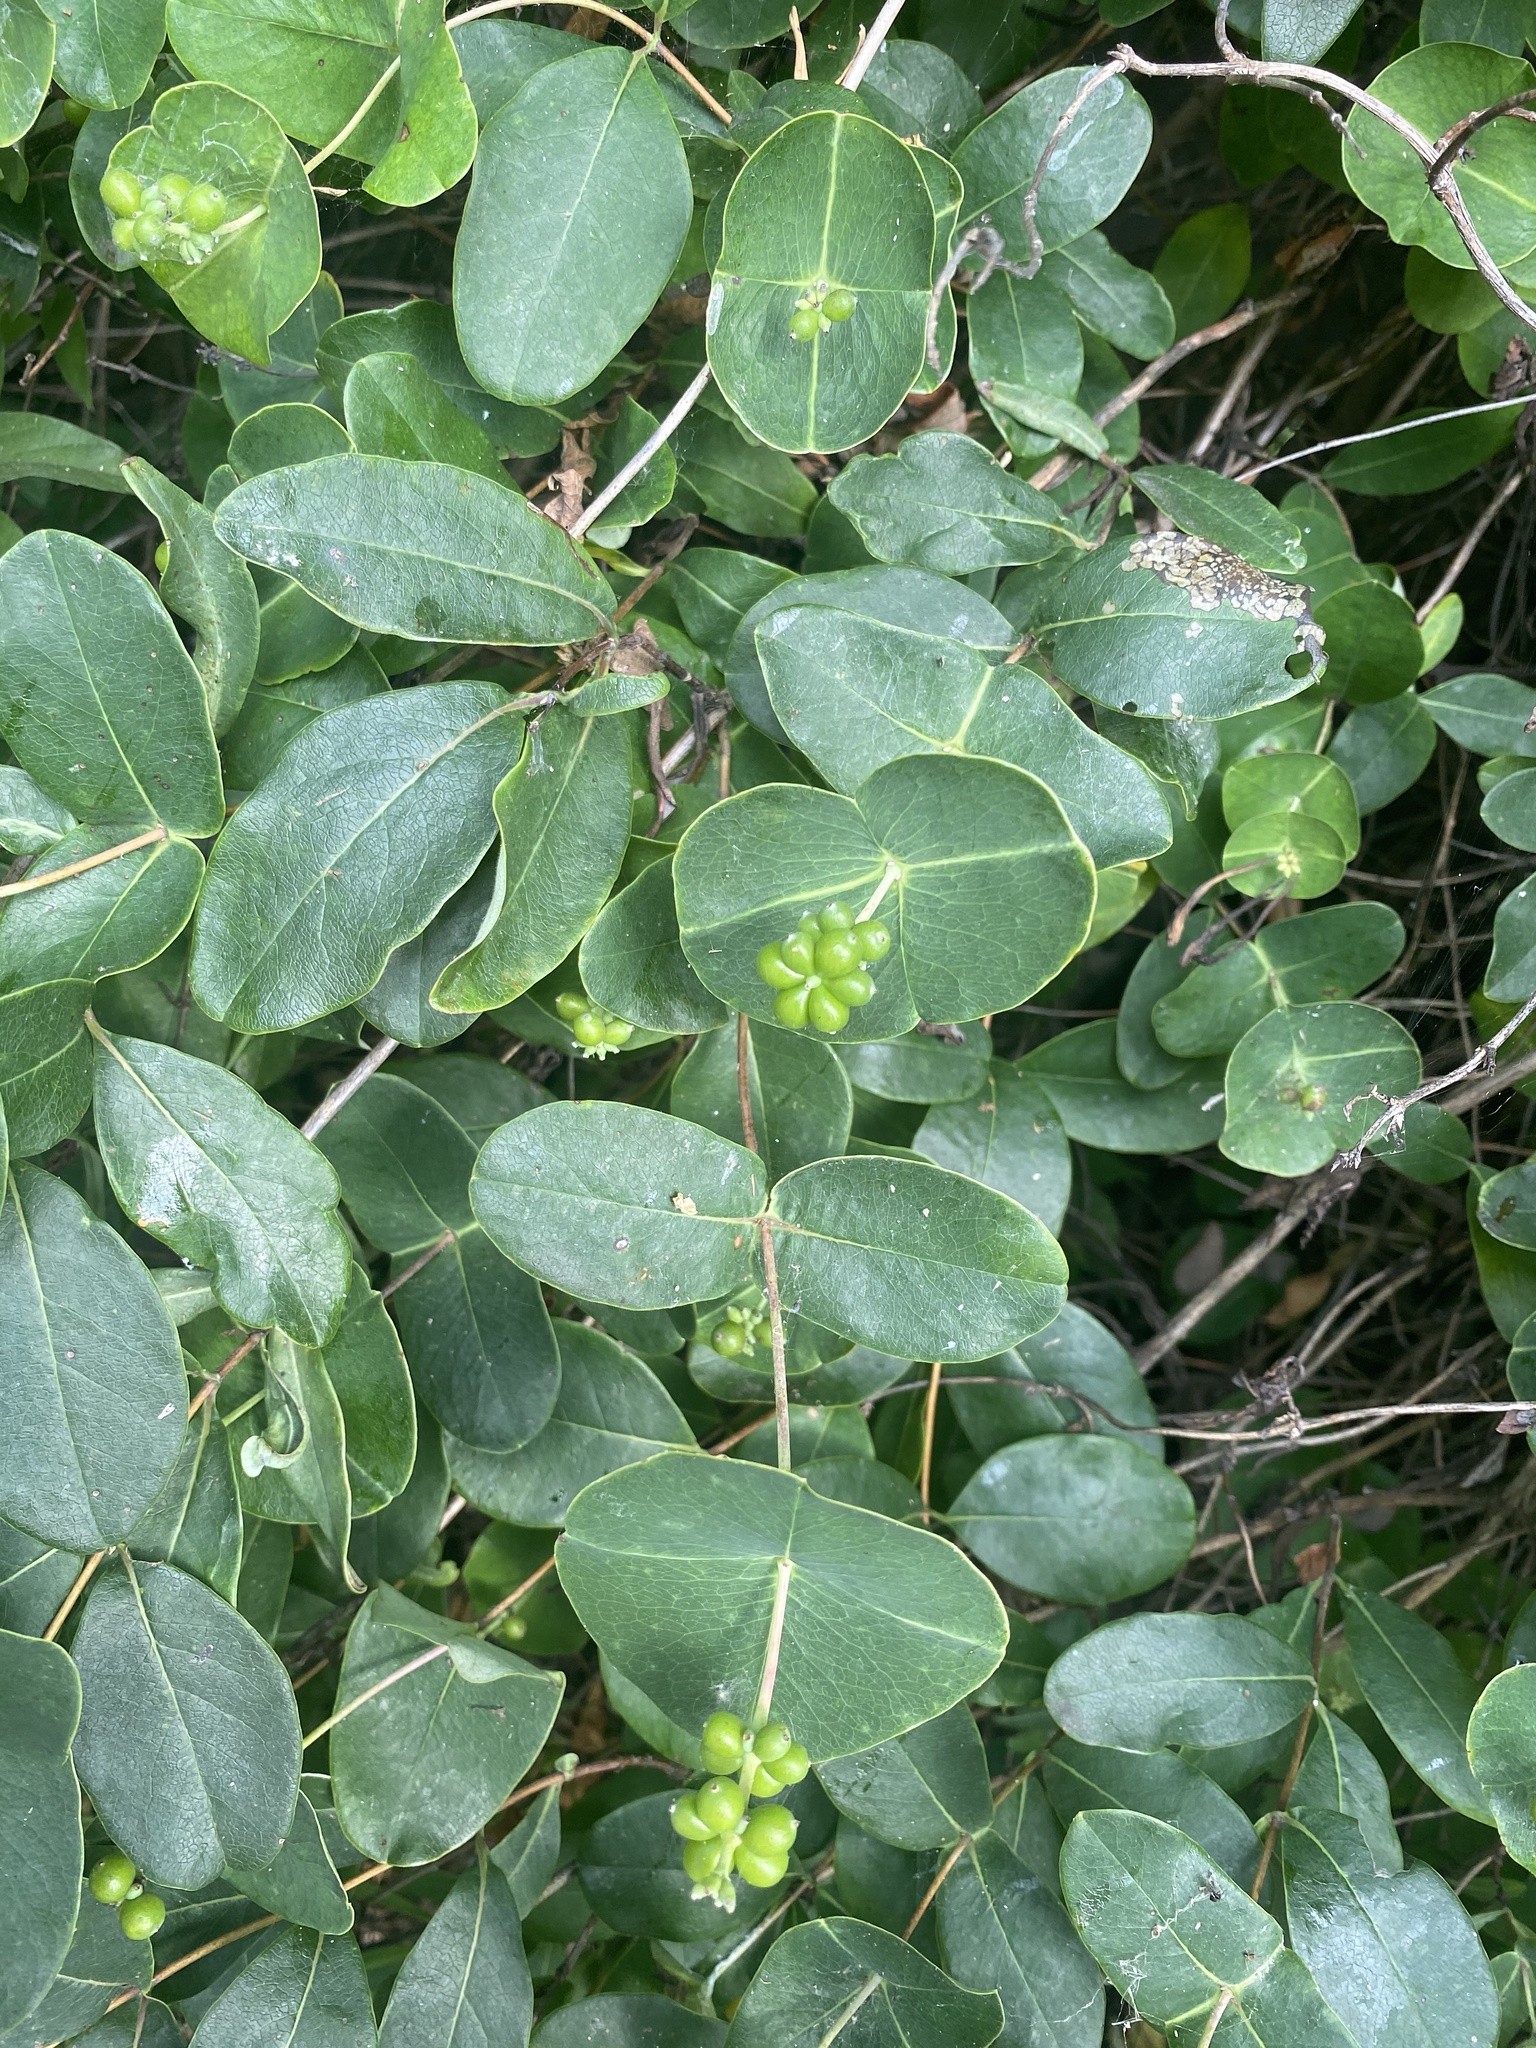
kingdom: Plantae
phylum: Tracheophyta
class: Magnoliopsida
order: Dipsacales
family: Caprifoliaceae
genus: Lonicera
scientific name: Lonicera sempervirens
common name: Coral honeysuckle
